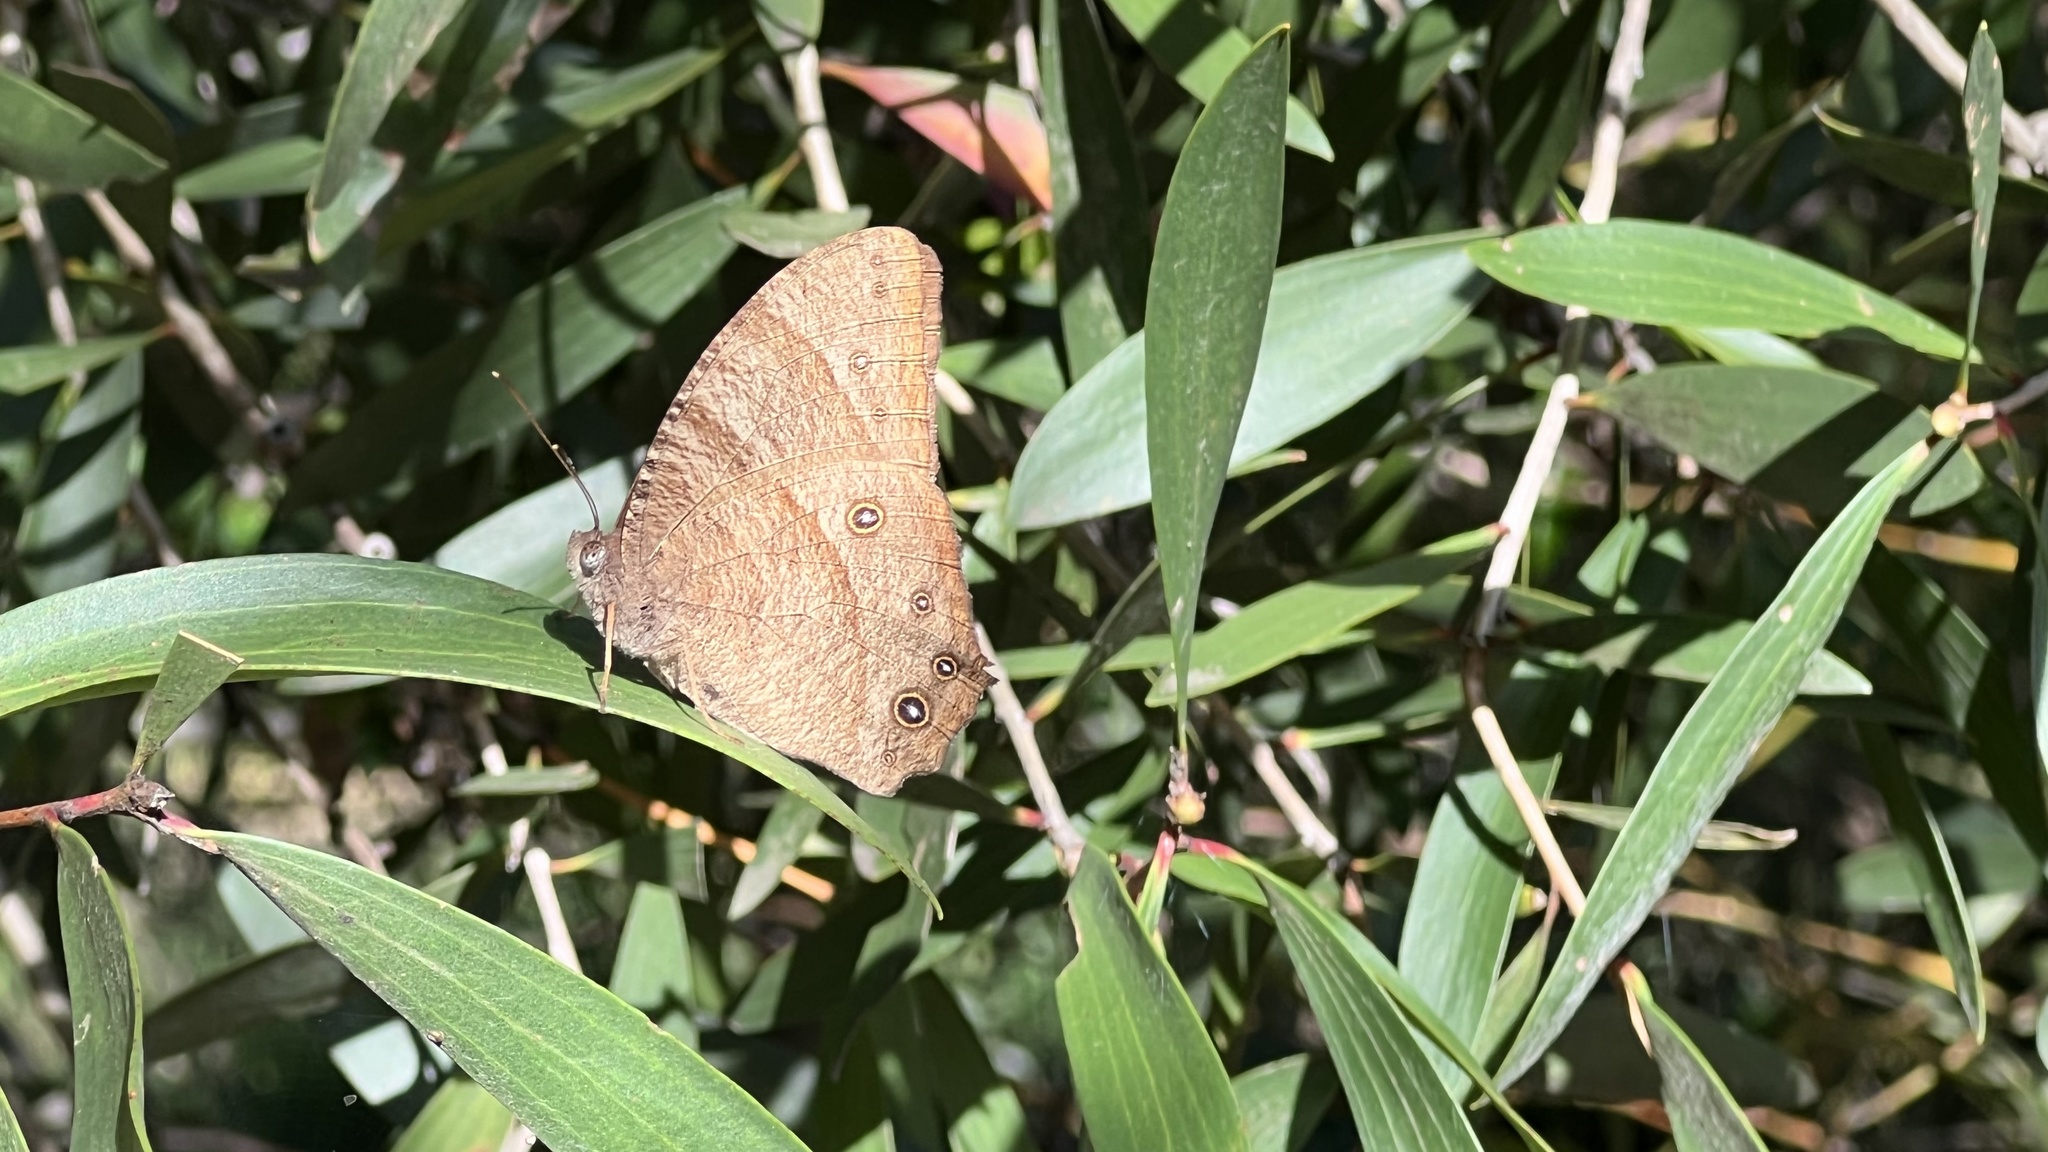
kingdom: Animalia
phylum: Arthropoda
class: Insecta
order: Lepidoptera
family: Nymphalidae
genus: Melanitis
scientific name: Melanitis leda
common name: Twilight brown
